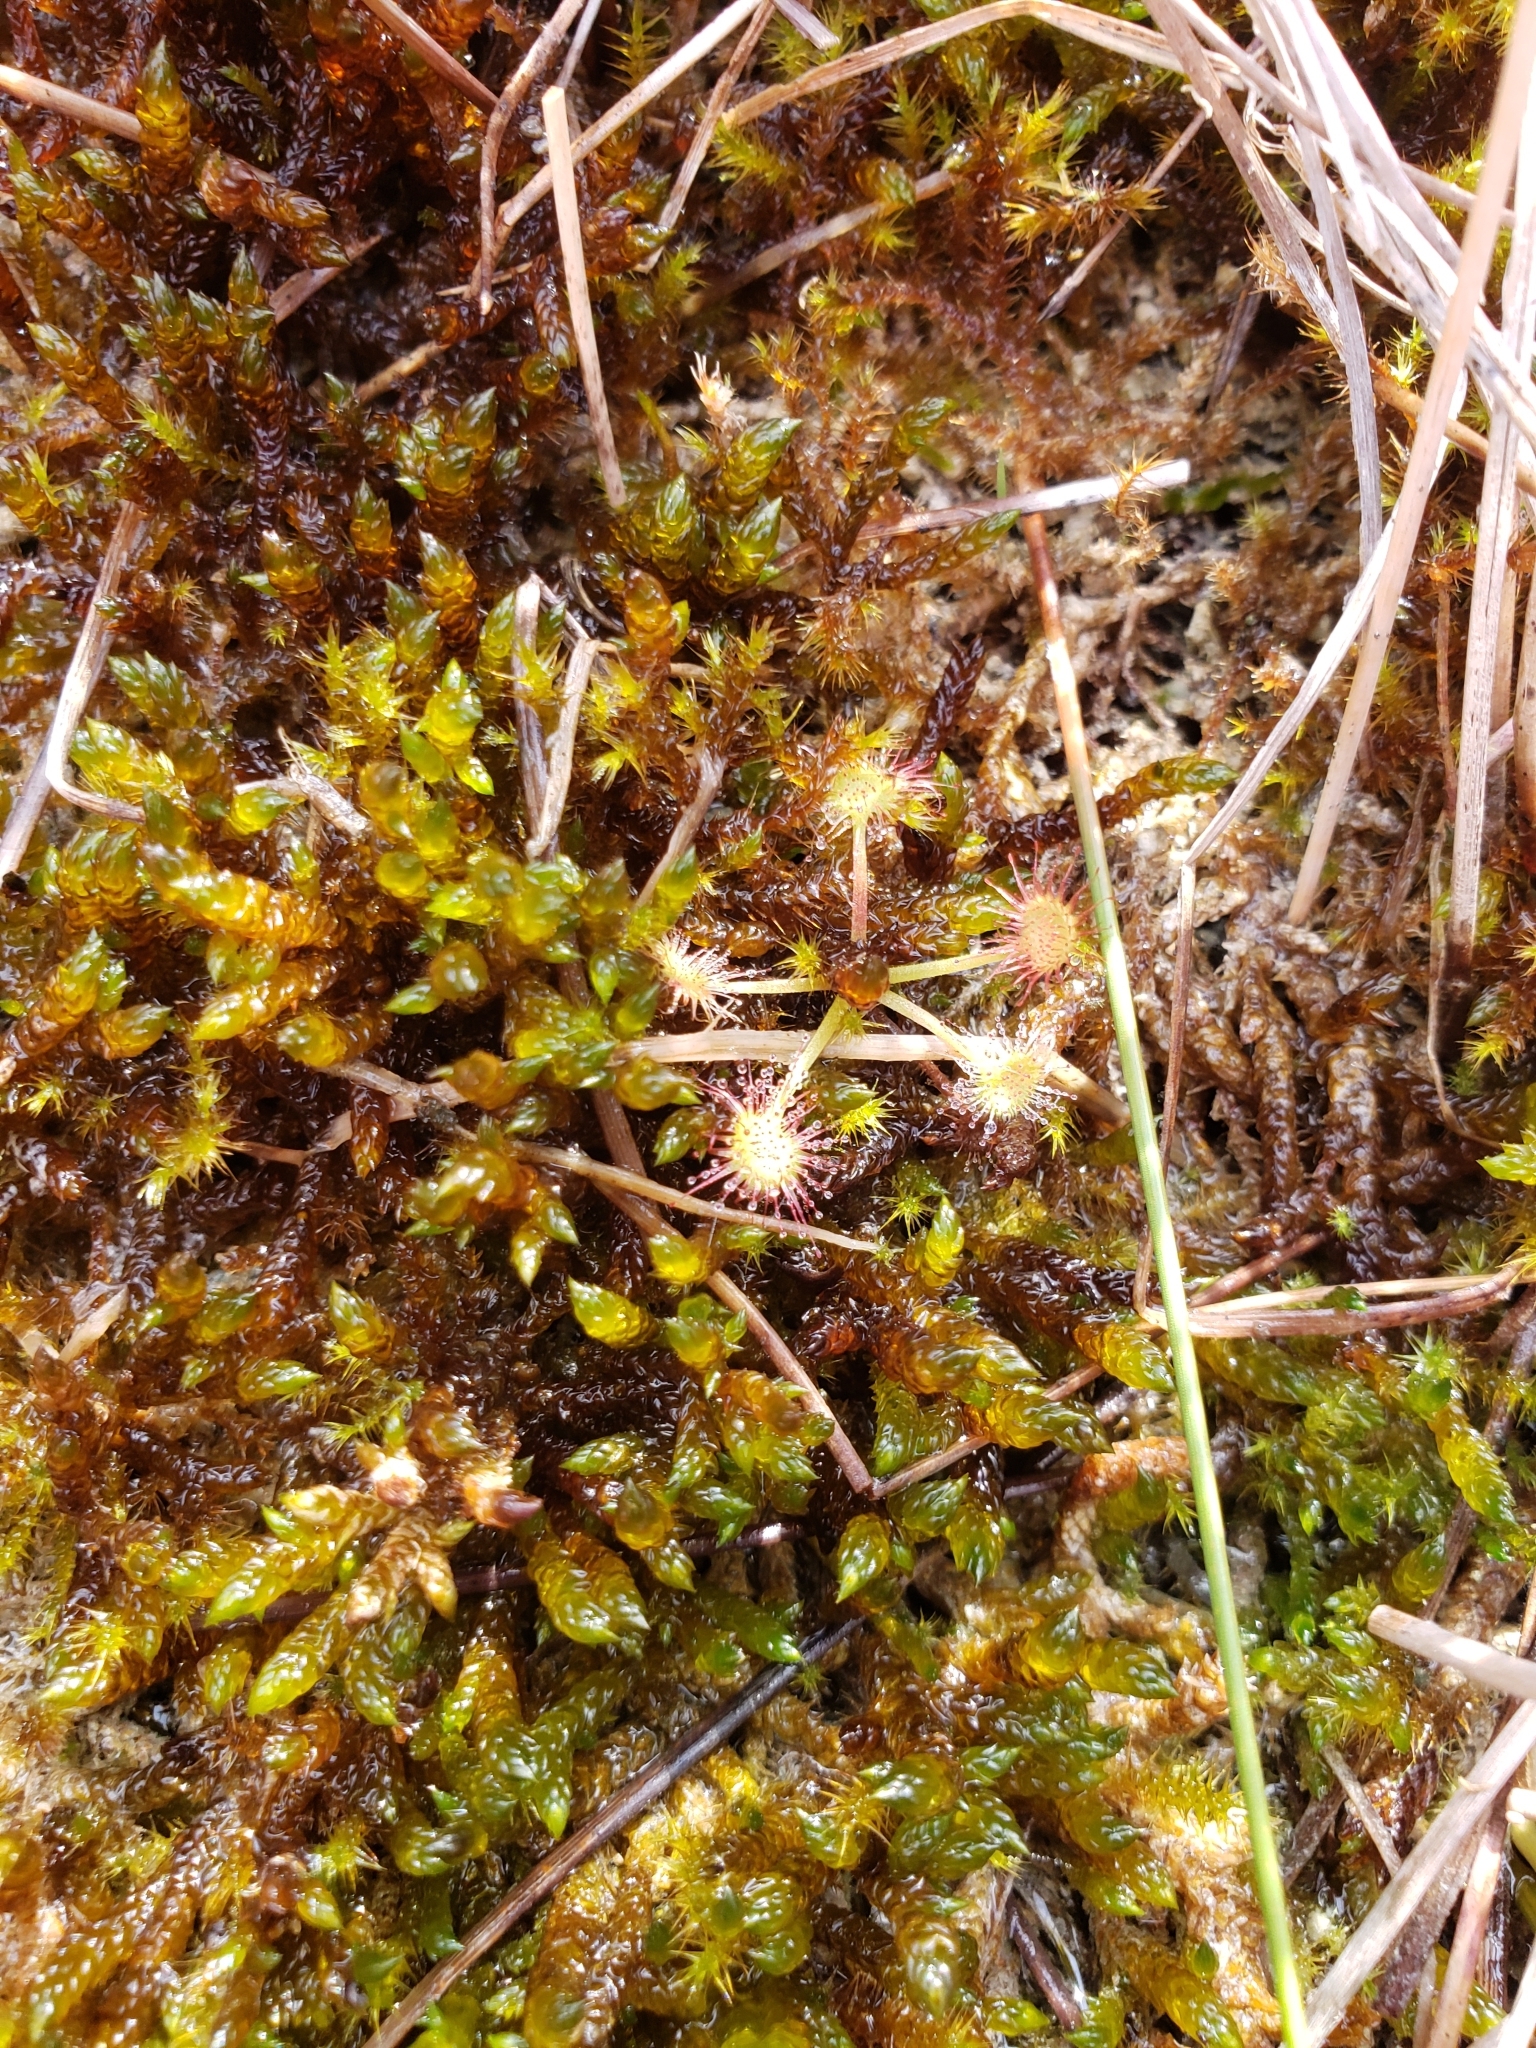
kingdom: Plantae
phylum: Tracheophyta
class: Magnoliopsida
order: Caryophyllales
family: Droseraceae
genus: Drosera
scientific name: Drosera rotundifolia
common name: Round-leaved sundew
